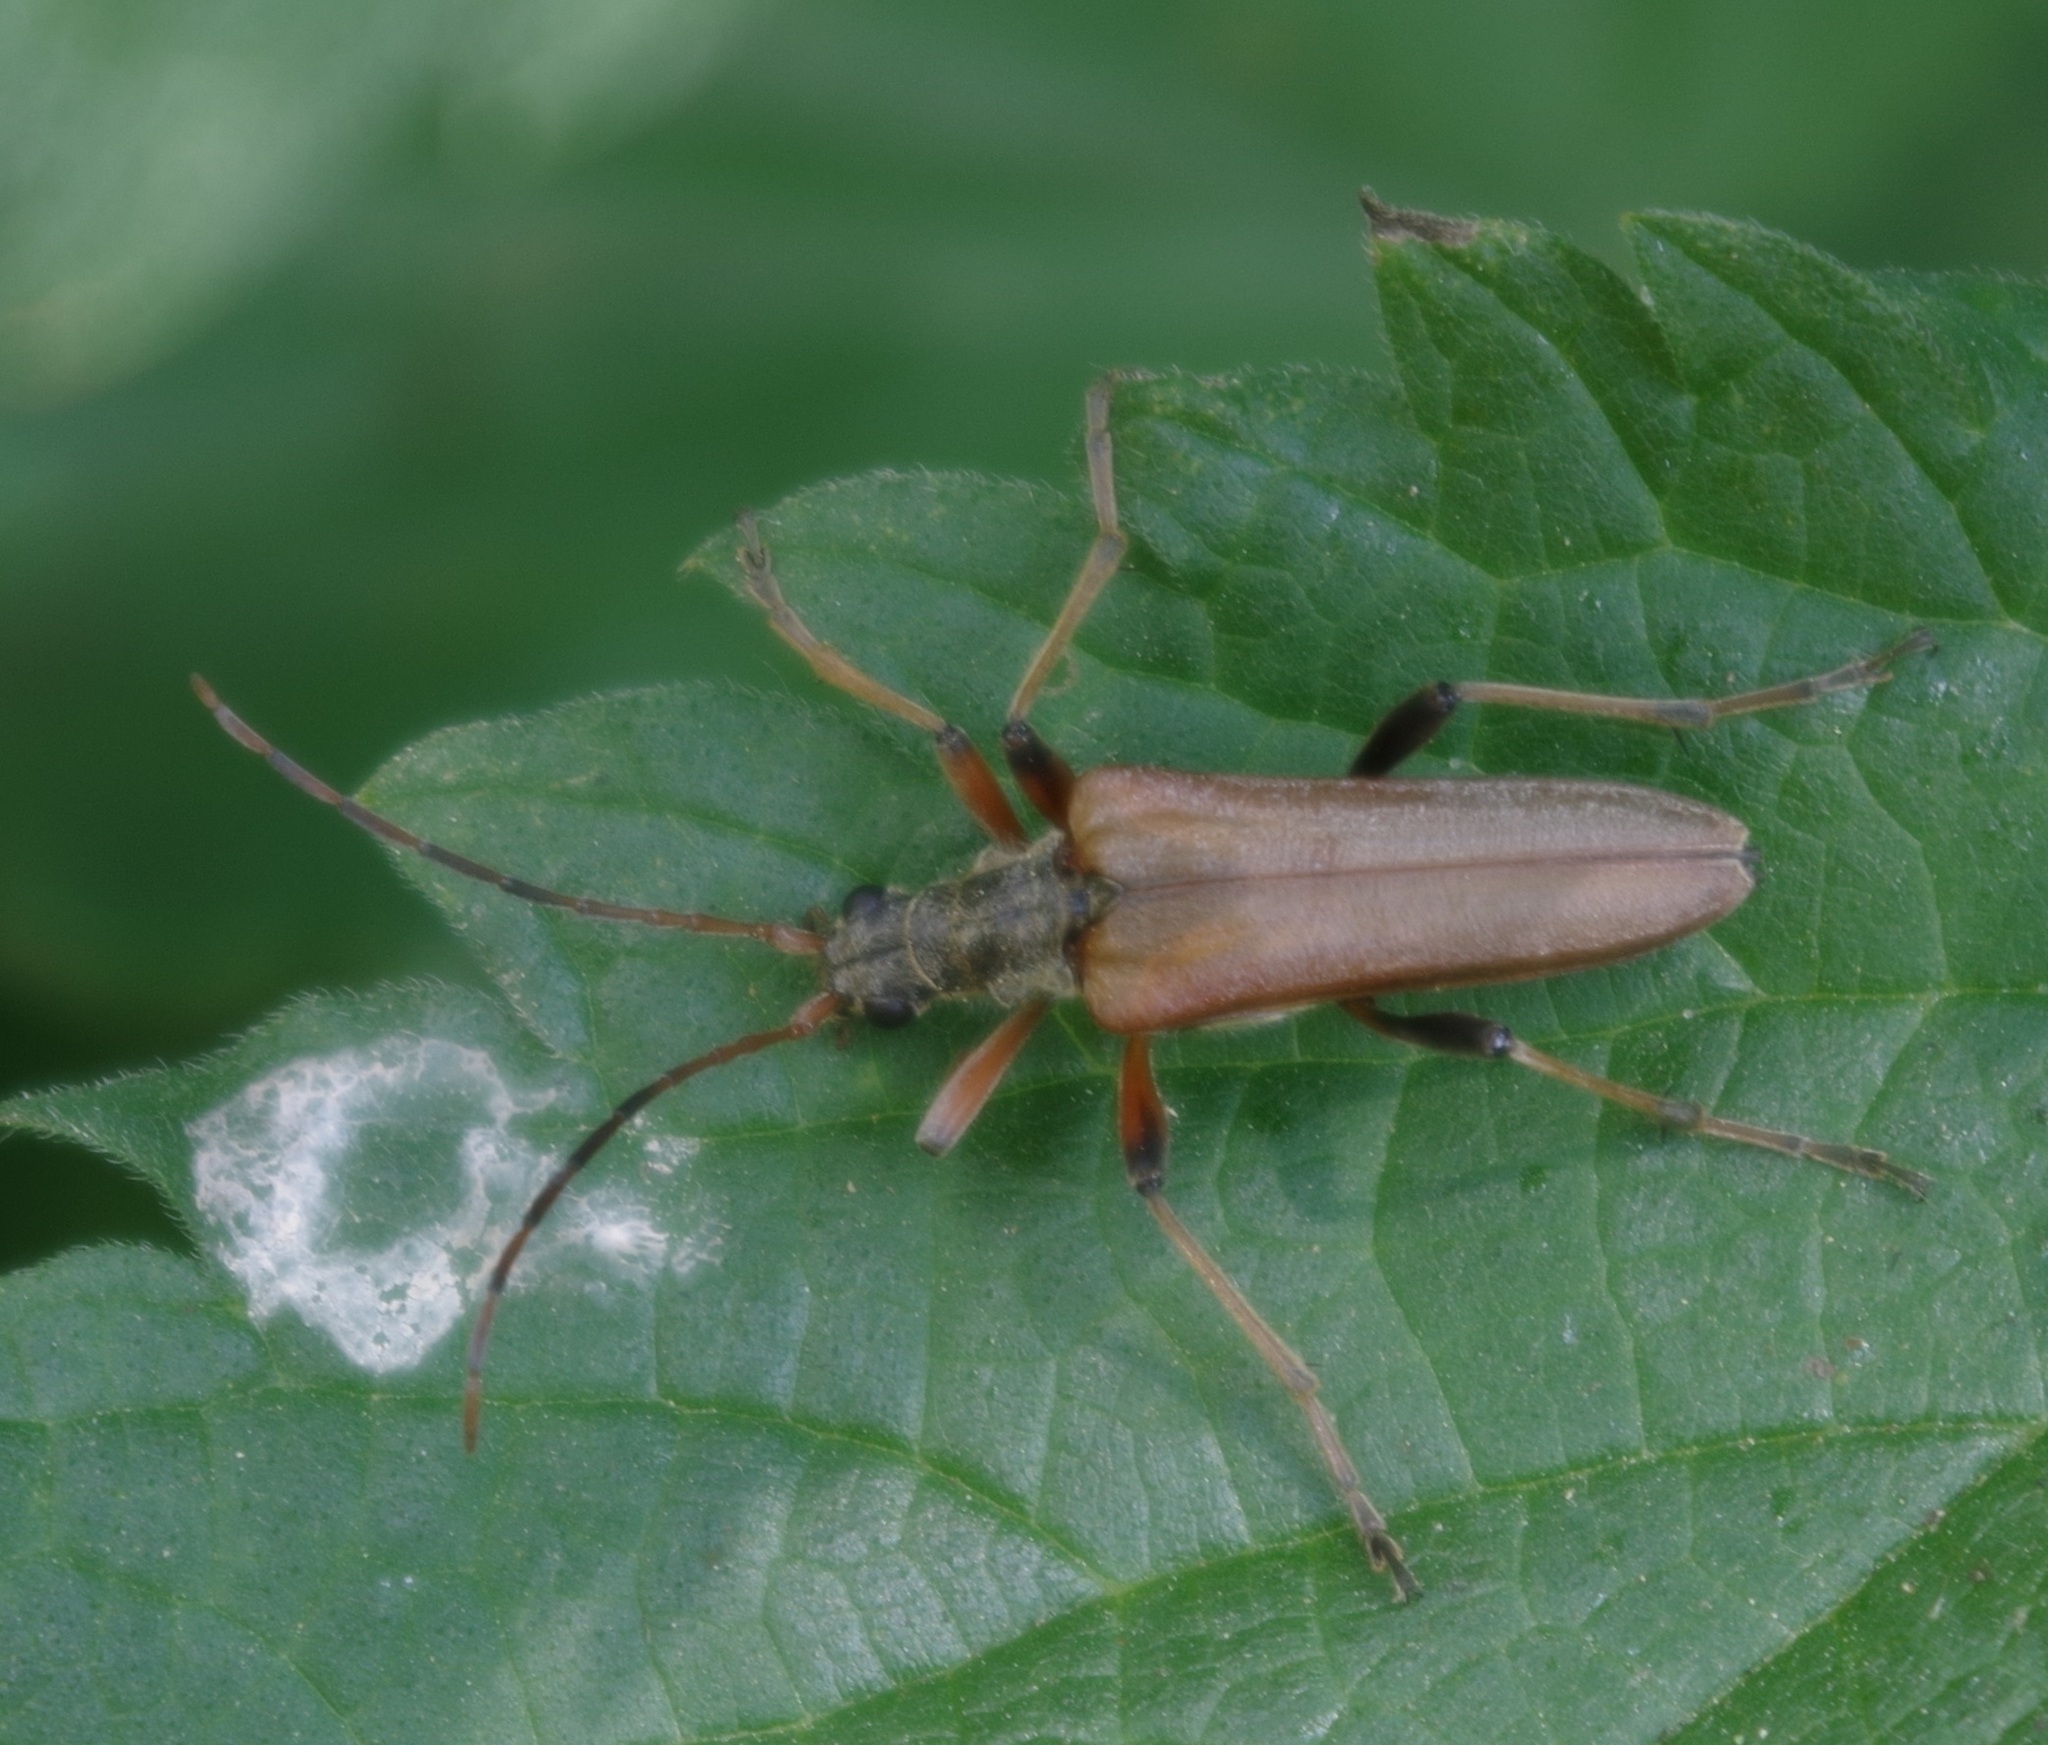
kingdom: Animalia
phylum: Arthropoda
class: Insecta
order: Coleoptera
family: Cerambycidae
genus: Stenocorus
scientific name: Stenocorus meridianus
